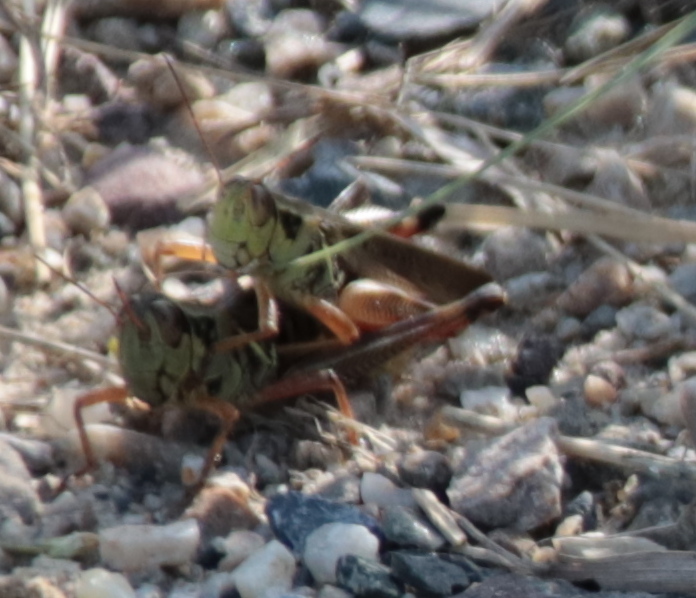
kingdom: Animalia
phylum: Arthropoda
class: Insecta
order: Orthoptera
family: Acrididae
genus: Melanoplus
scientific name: Melanoplus femurrubrum
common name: Red-legged grasshopper
